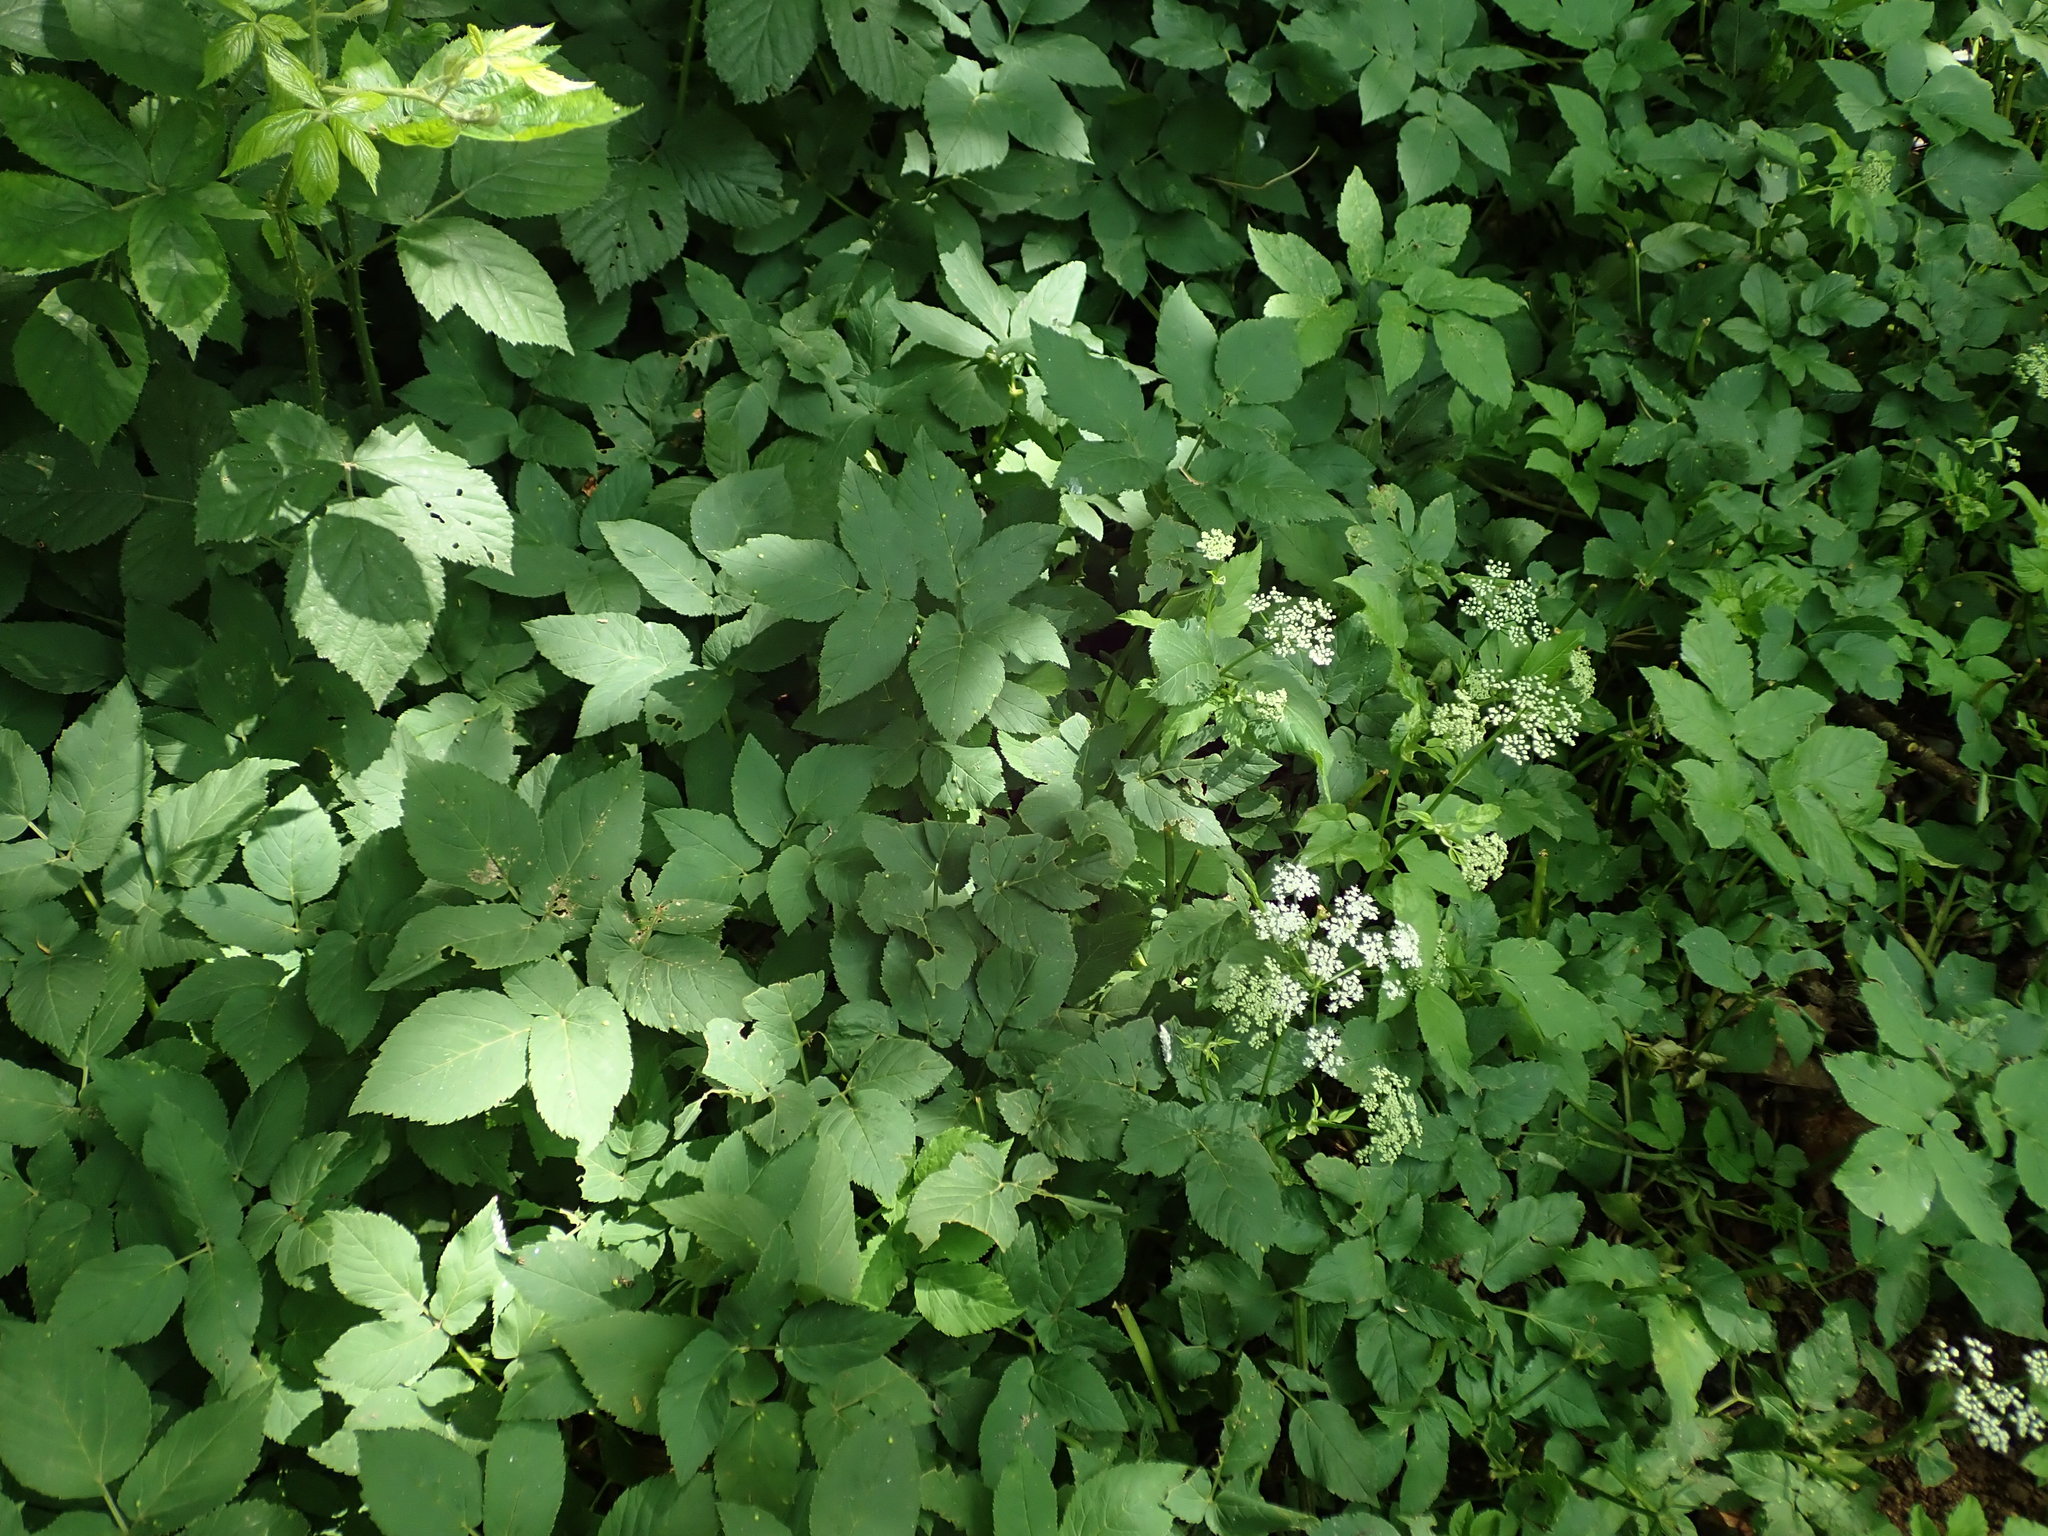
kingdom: Plantae
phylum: Tracheophyta
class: Magnoliopsida
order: Apiales
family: Apiaceae
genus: Aegopodium
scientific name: Aegopodium podagraria
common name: Ground-elder
